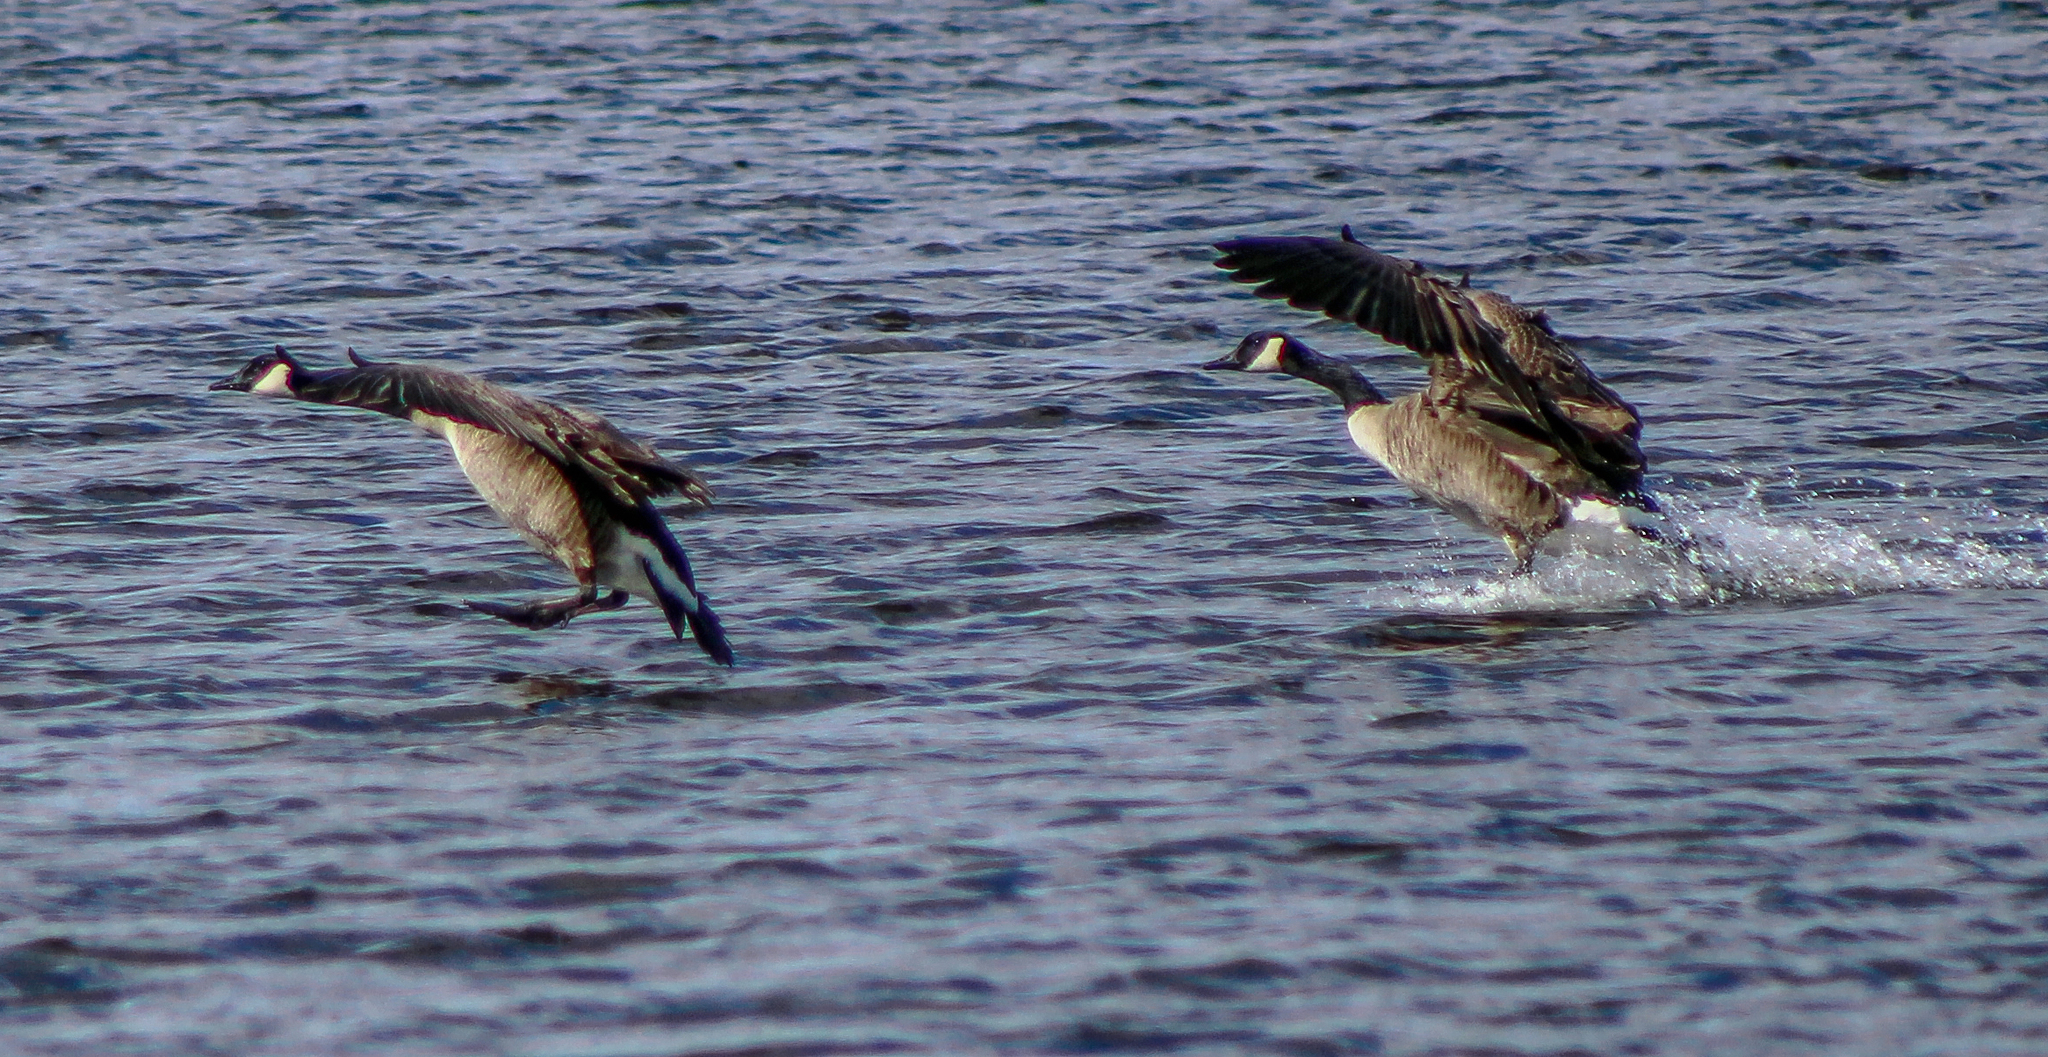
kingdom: Animalia
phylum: Chordata
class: Aves
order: Anseriformes
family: Anatidae
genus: Branta
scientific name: Branta canadensis
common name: Canada goose
